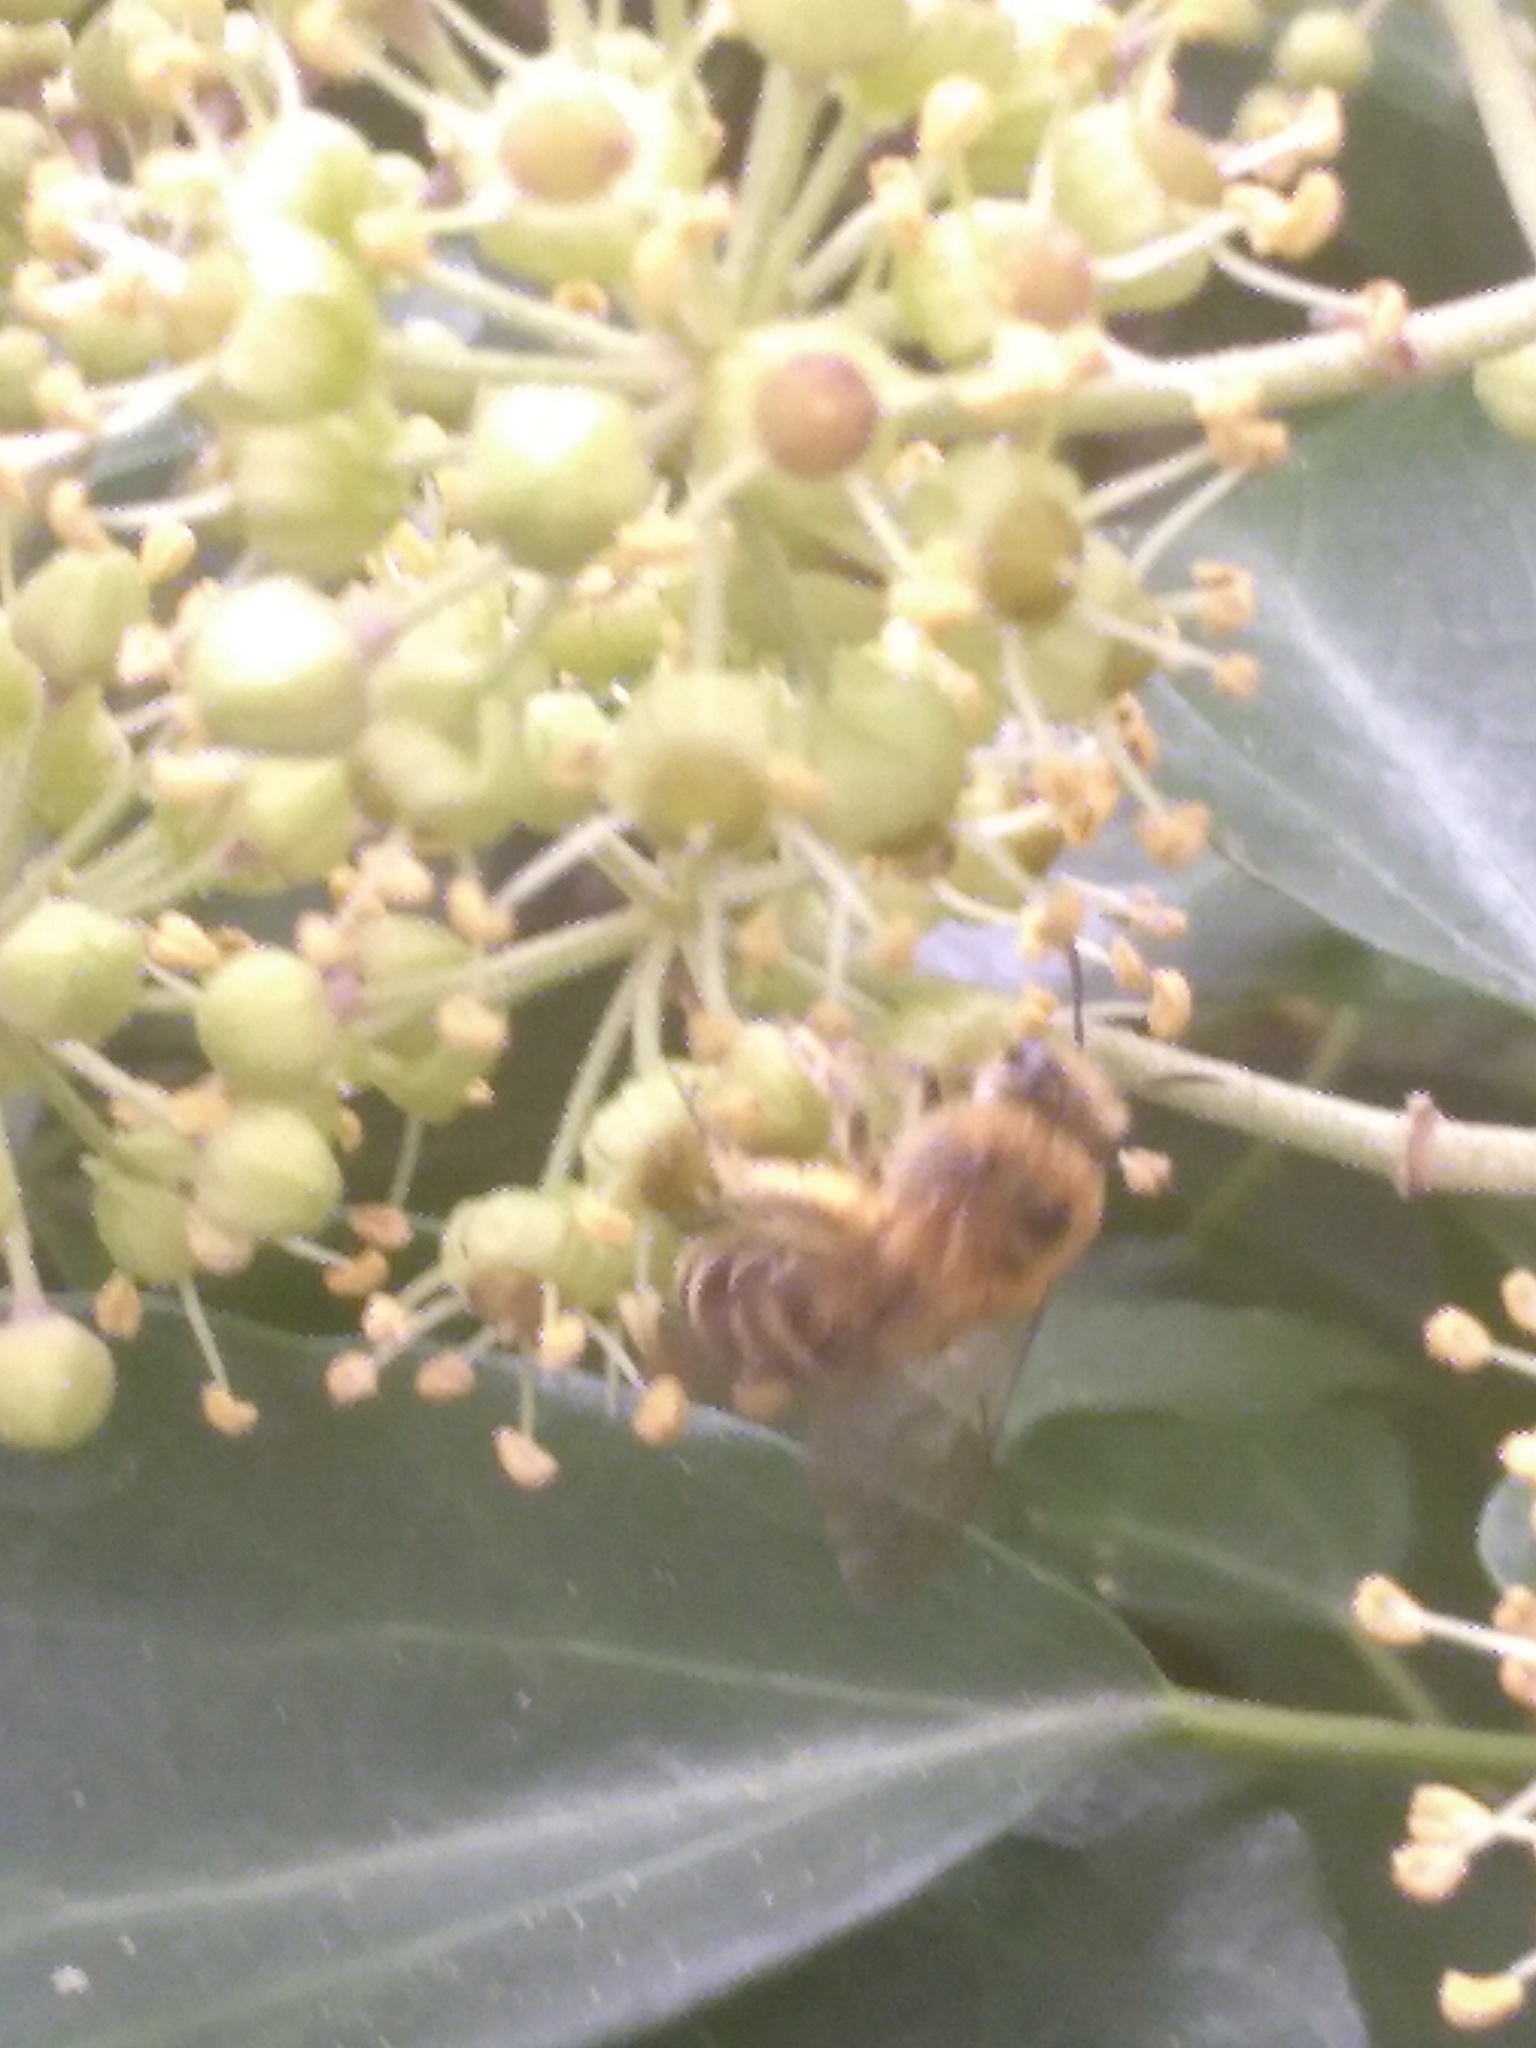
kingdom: Animalia
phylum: Arthropoda
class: Insecta
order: Hymenoptera
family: Colletidae
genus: Colletes
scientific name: Colletes hederae
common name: Ivy bee
